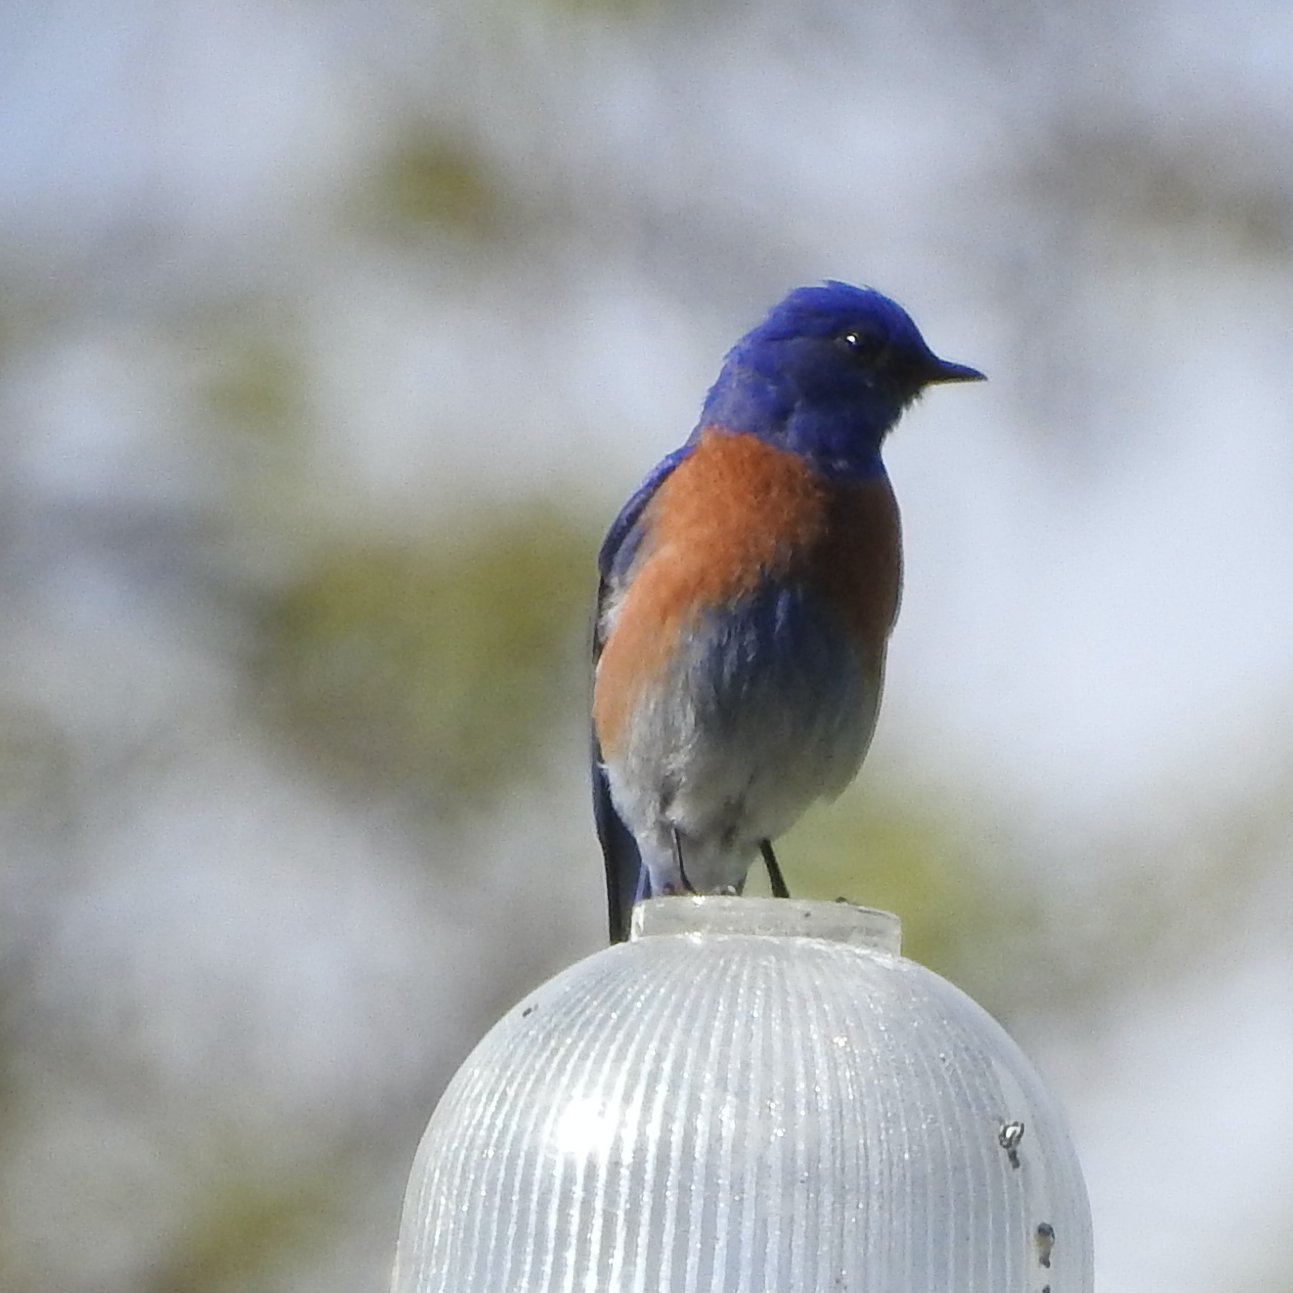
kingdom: Animalia
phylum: Chordata
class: Aves
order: Passeriformes
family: Turdidae
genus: Sialia
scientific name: Sialia mexicana
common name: Western bluebird
